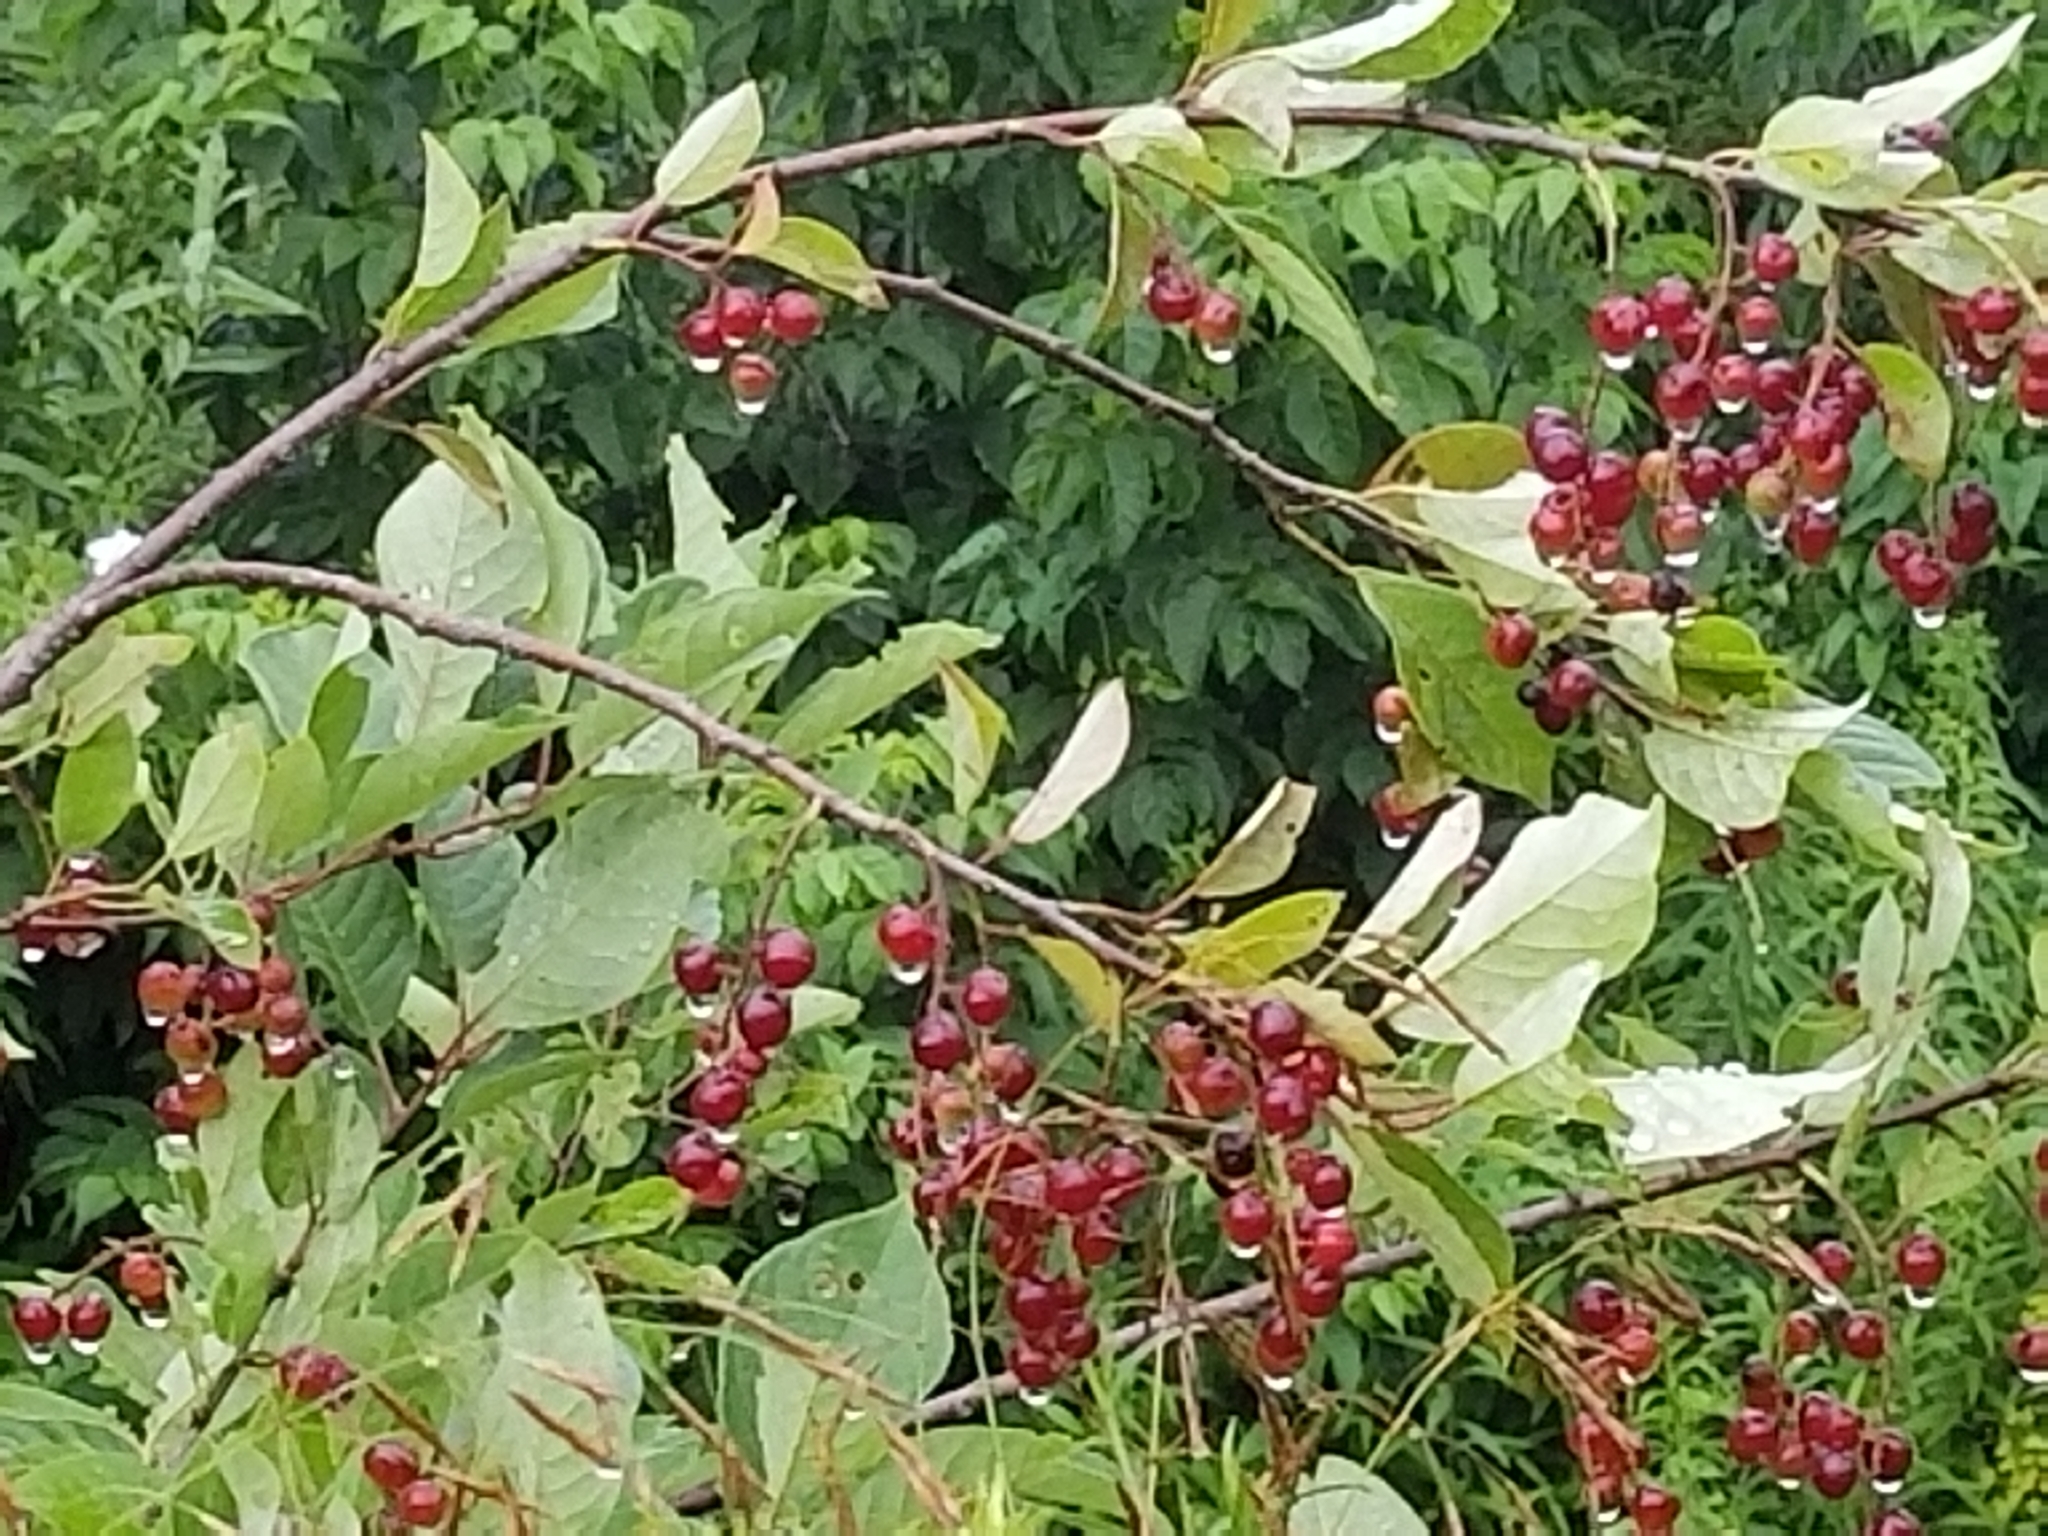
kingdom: Plantae
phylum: Tracheophyta
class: Magnoliopsida
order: Rosales
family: Rosaceae
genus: Prunus
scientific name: Prunus virginiana
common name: Chokecherry
